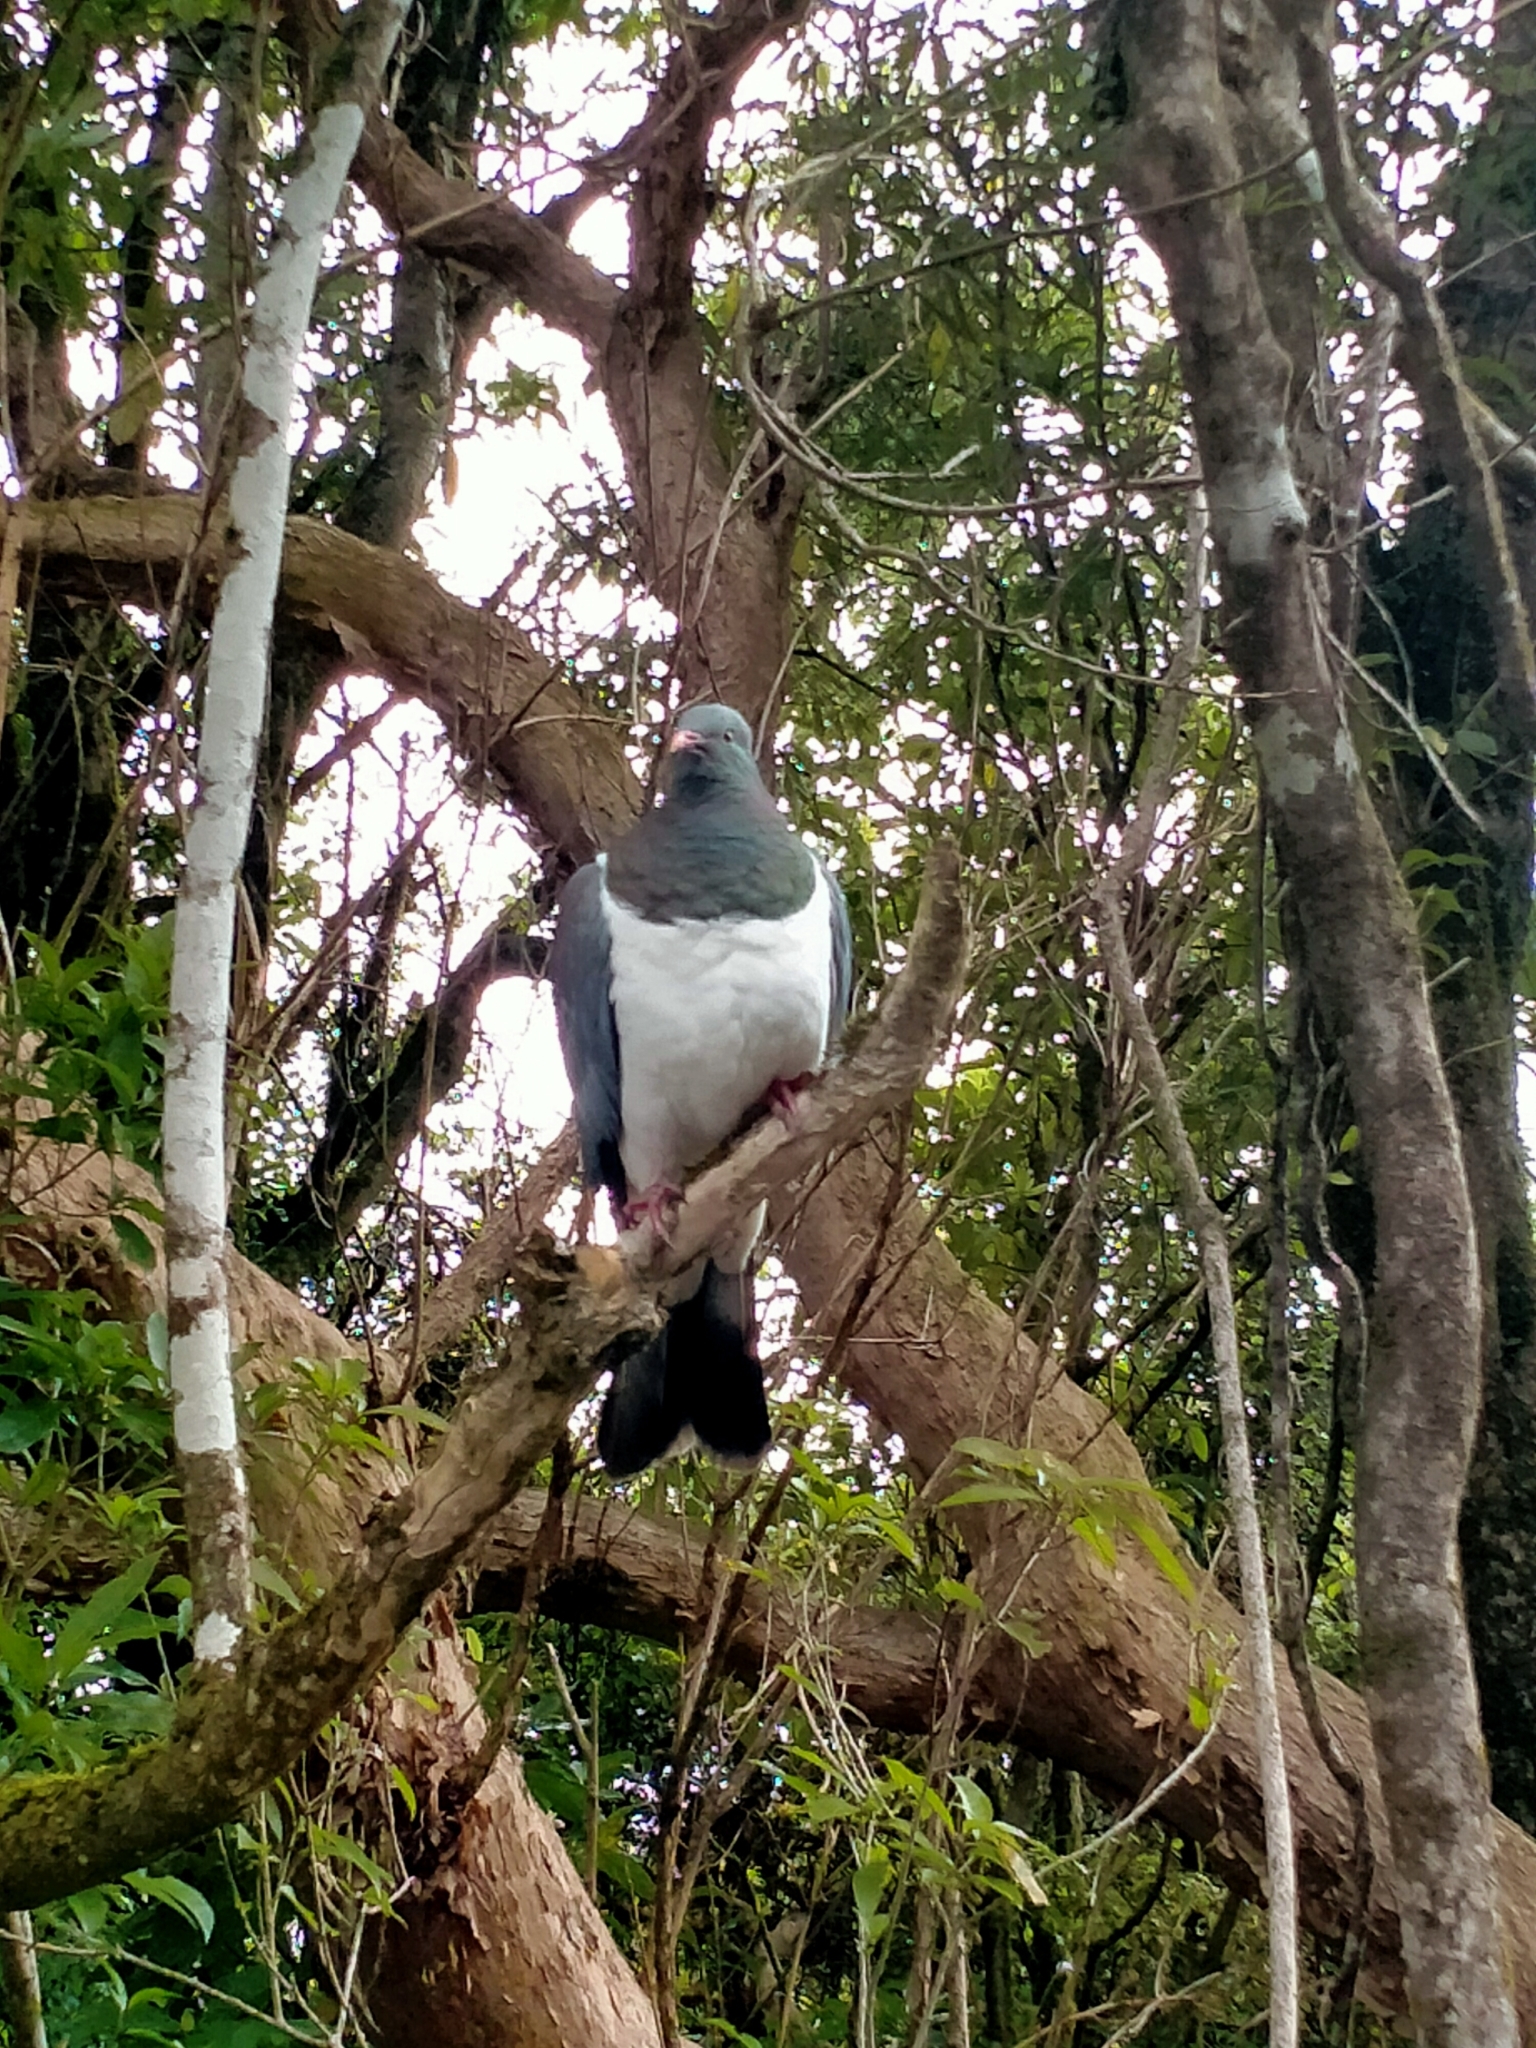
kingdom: Animalia
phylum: Chordata
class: Aves
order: Columbiformes
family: Columbidae
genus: Hemiphaga
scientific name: Hemiphaga novaeseelandiae
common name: New zealand pigeon
